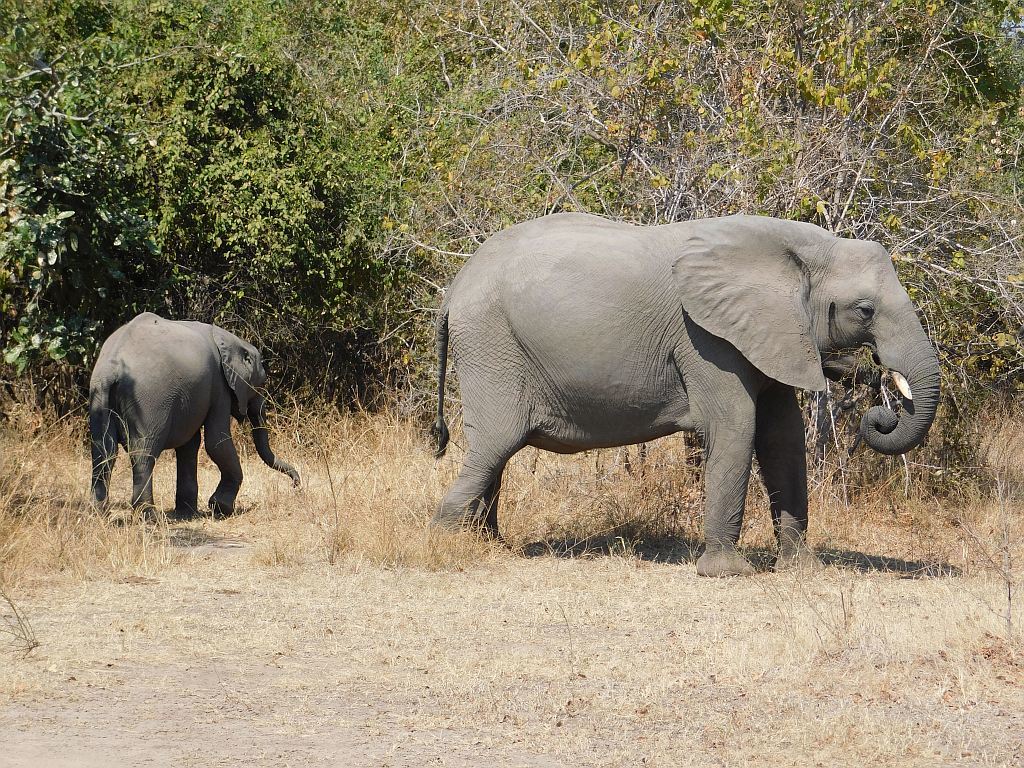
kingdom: Animalia
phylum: Chordata
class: Mammalia
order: Proboscidea
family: Elephantidae
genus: Loxodonta
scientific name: Loxodonta africana
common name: African elephant
